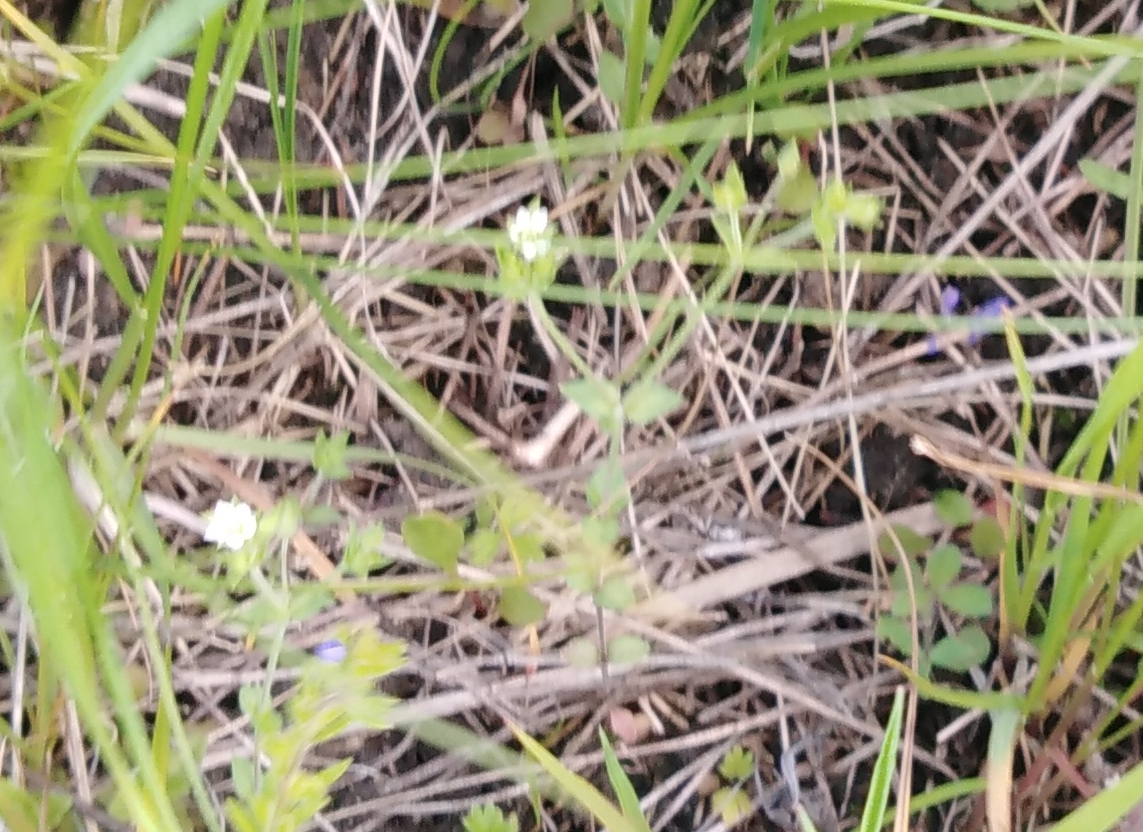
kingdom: Plantae
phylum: Tracheophyta
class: Magnoliopsida
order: Caryophyllales
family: Caryophyllaceae
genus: Moehringia
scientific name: Moehringia trinervia
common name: Three-nerved sandwort
